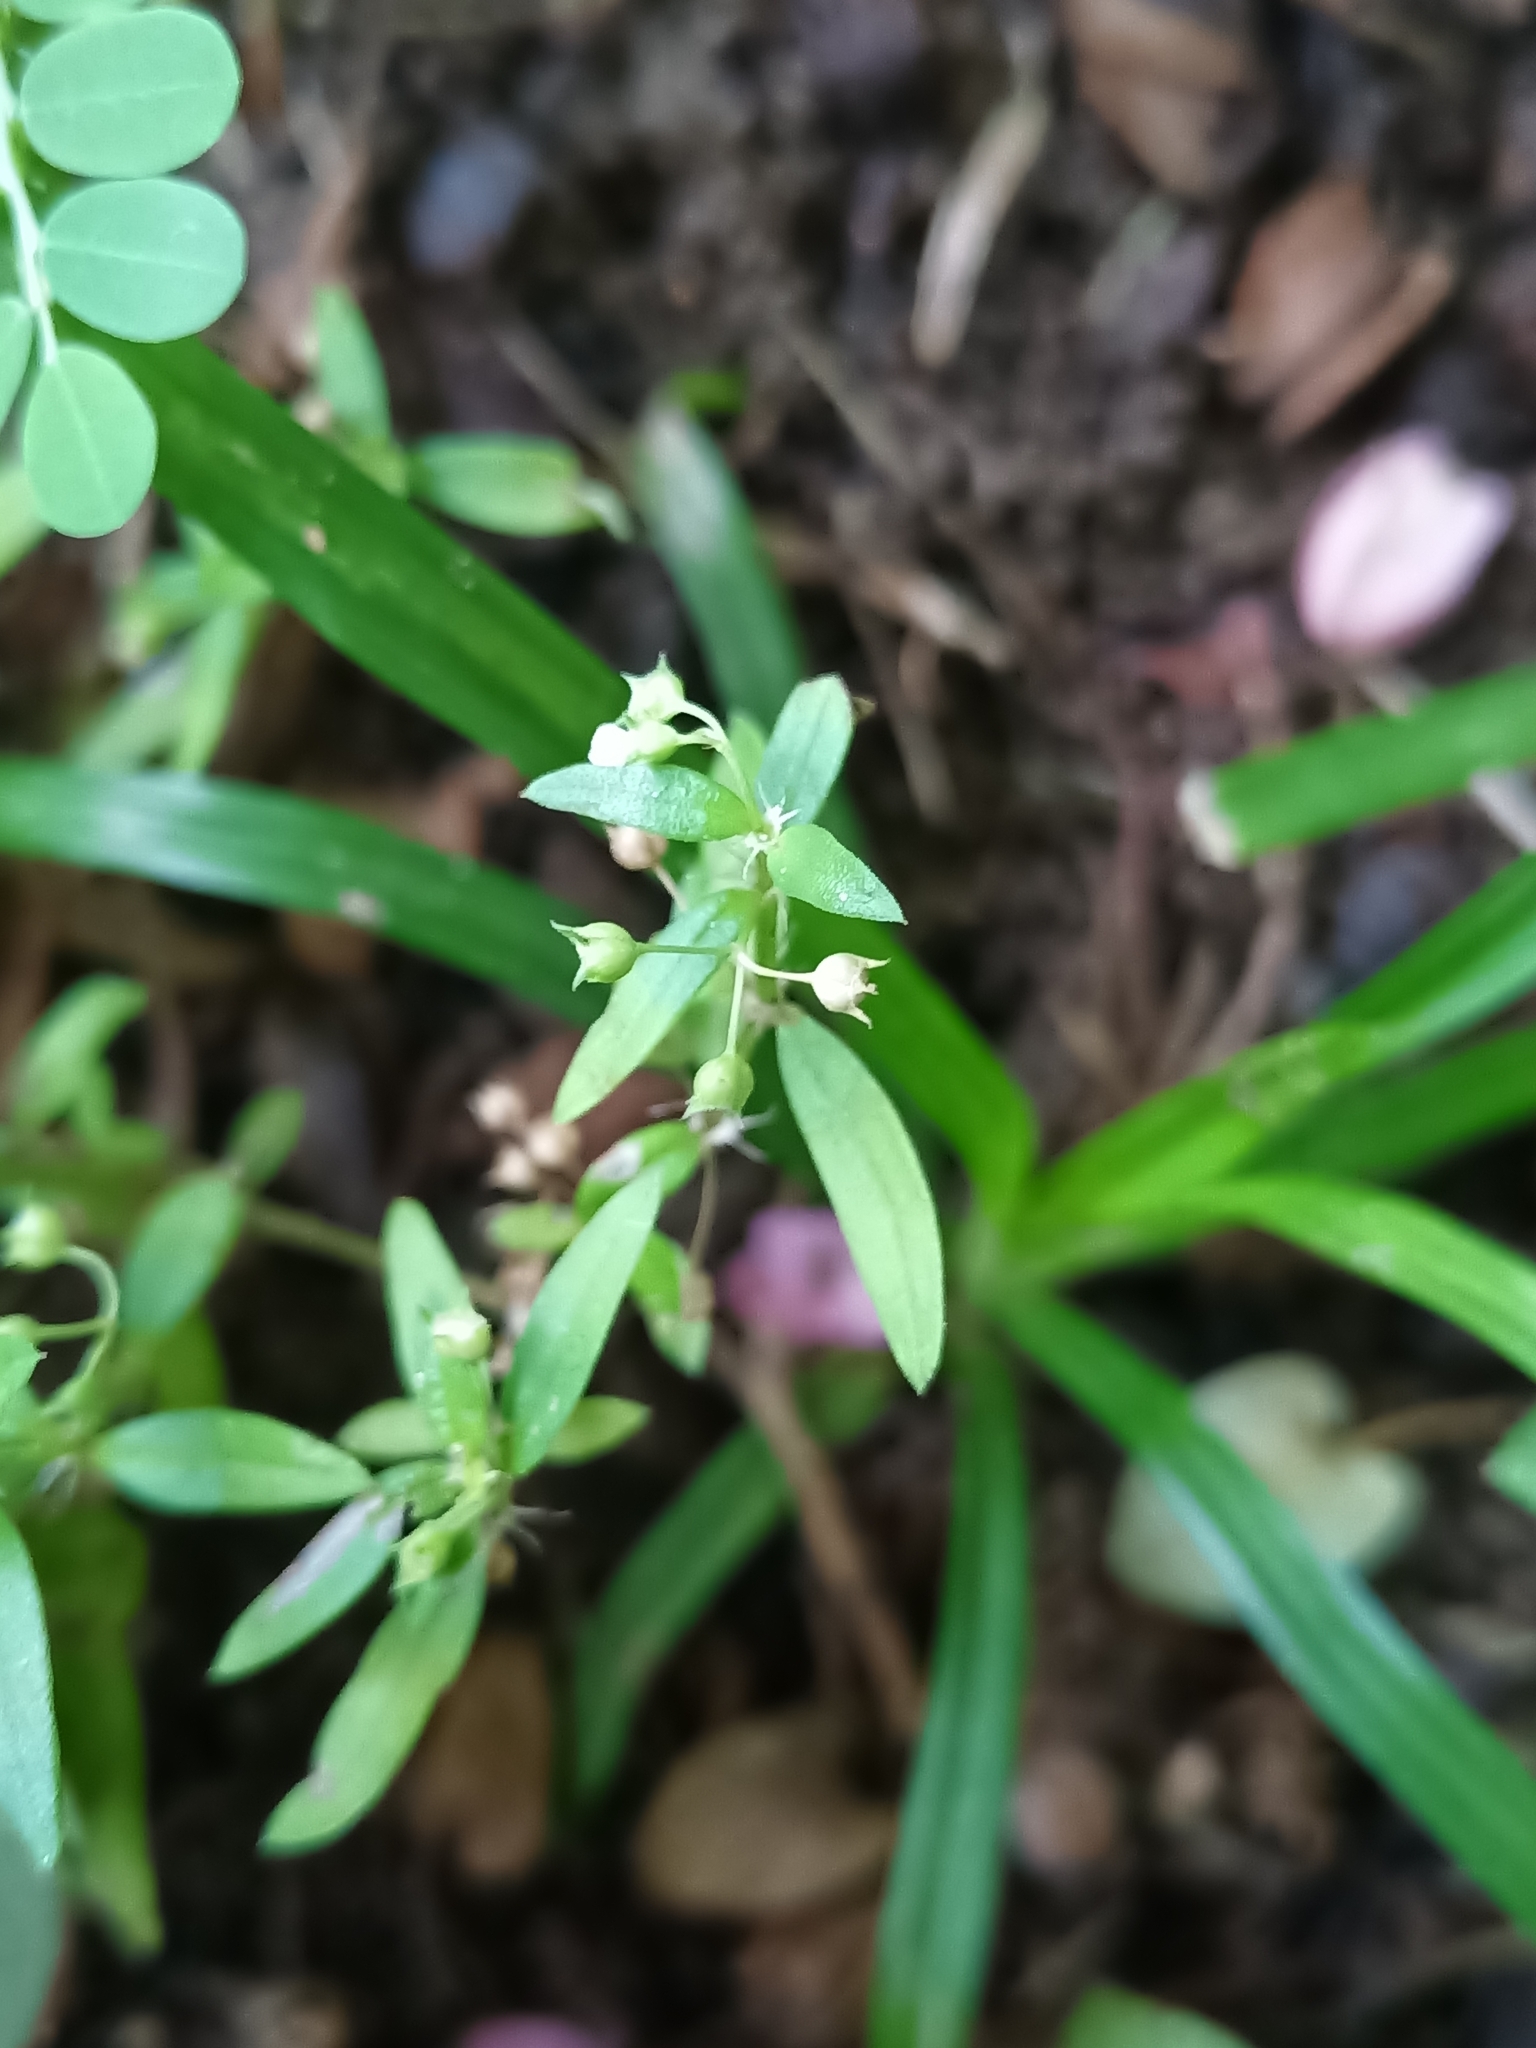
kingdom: Plantae
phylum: Tracheophyta
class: Magnoliopsida
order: Gentianales
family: Rubiaceae
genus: Oldenlandia
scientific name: Oldenlandia corymbosa
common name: Flat-top mille graines
